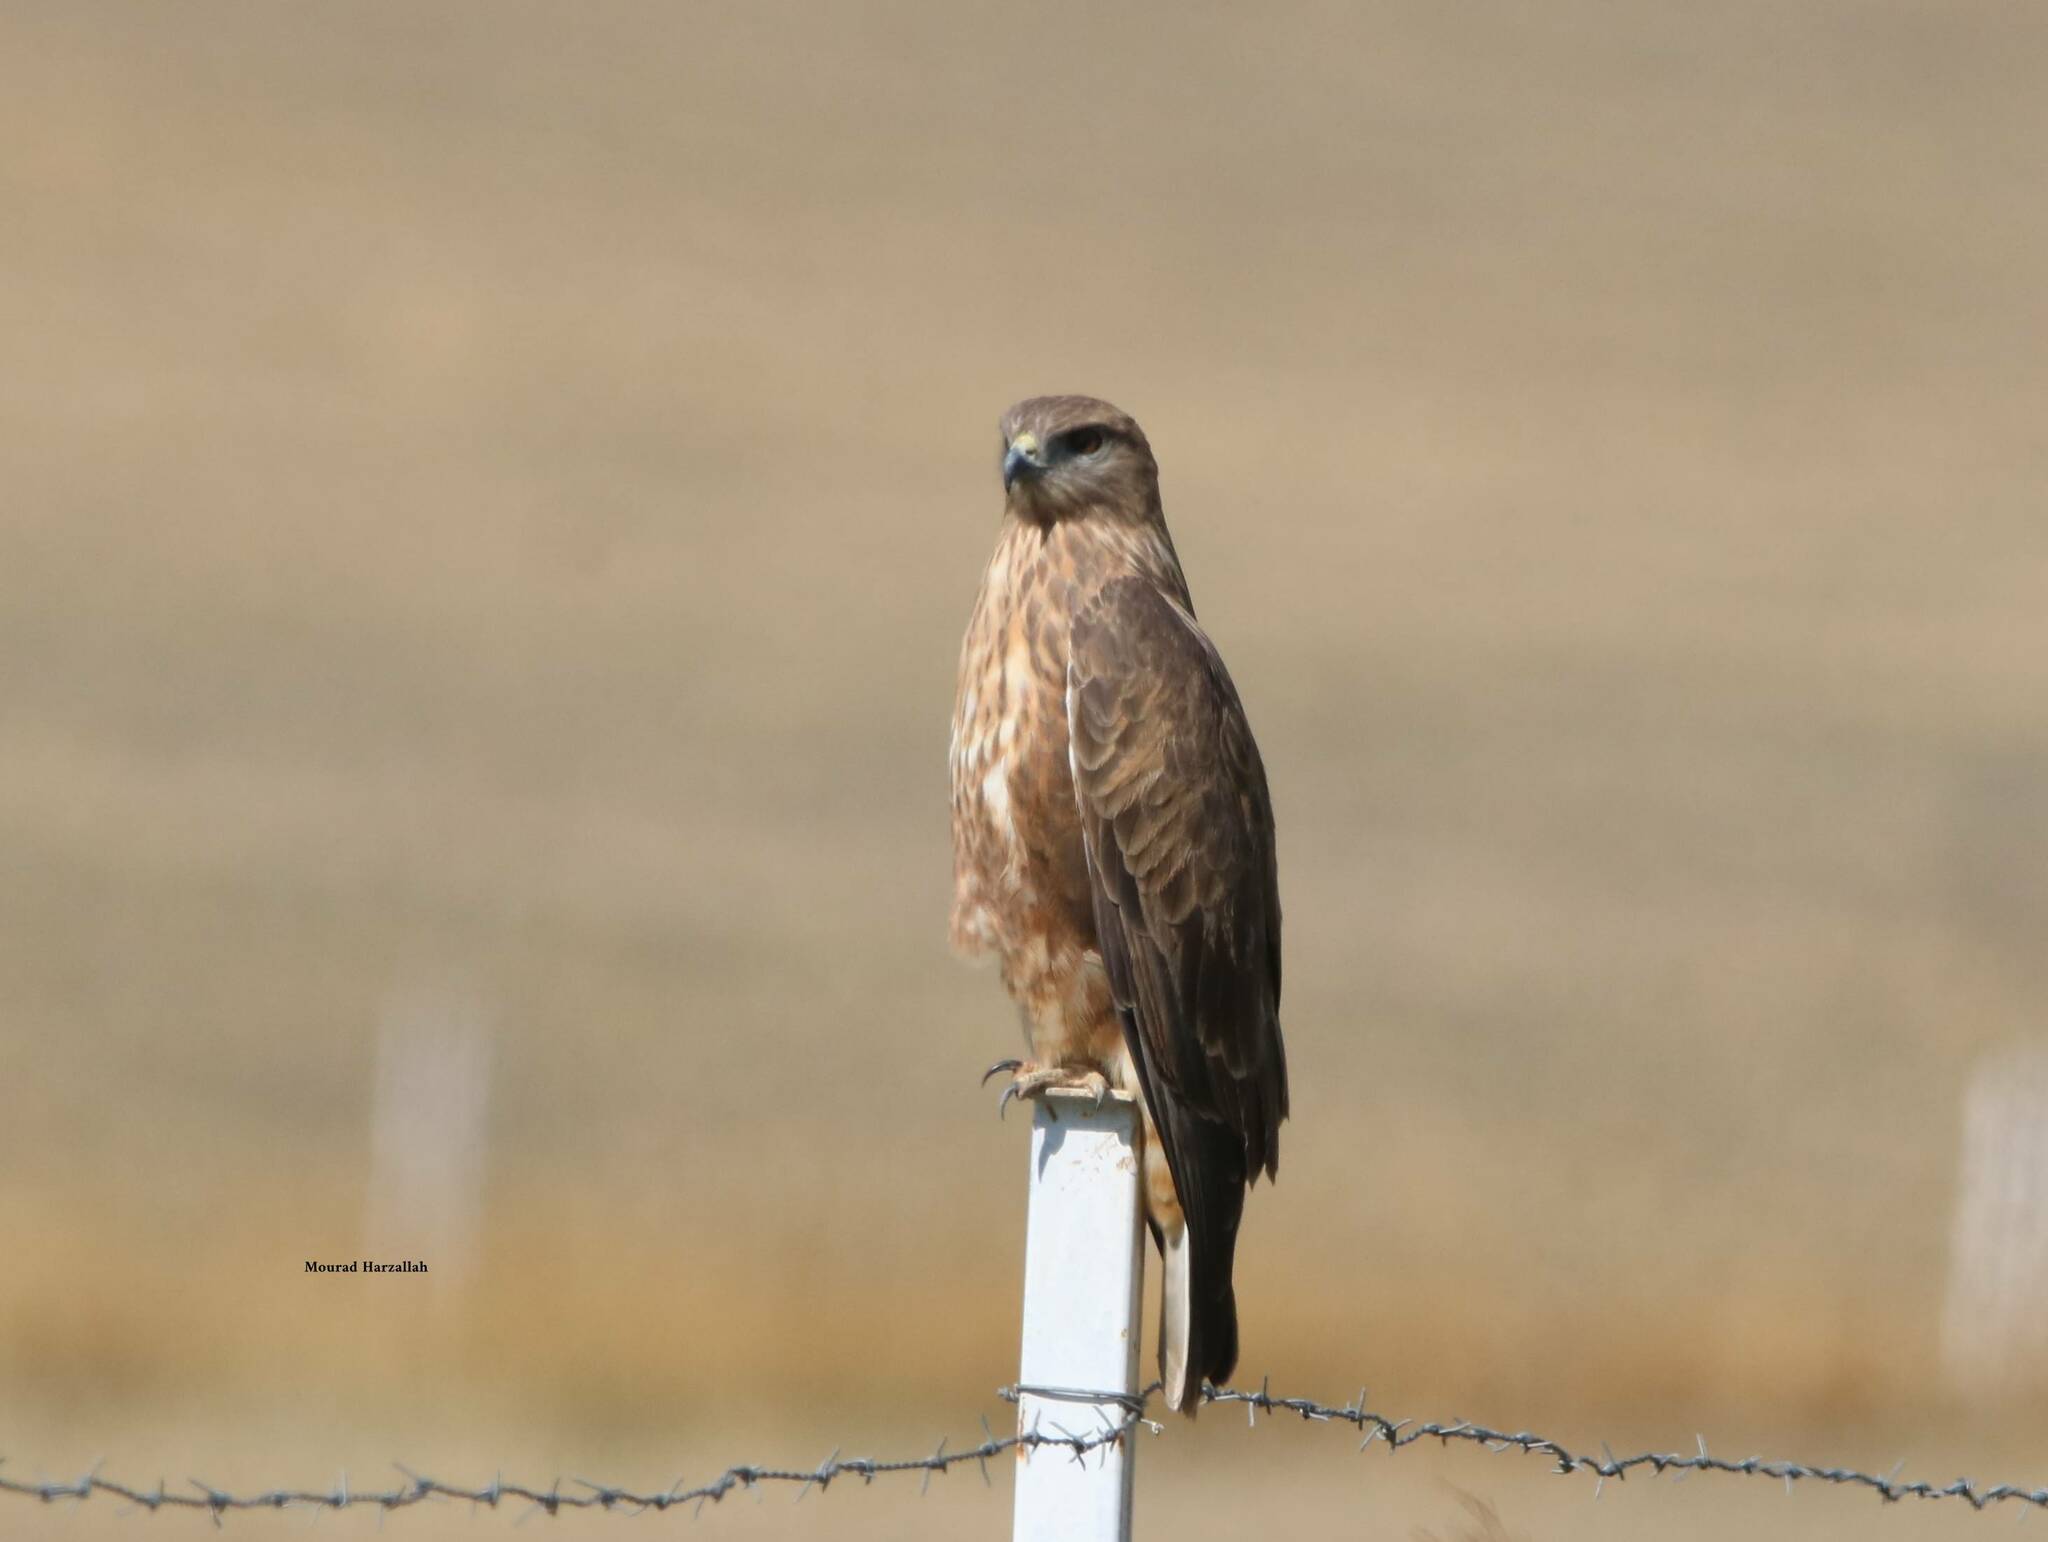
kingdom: Animalia
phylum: Chordata
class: Aves
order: Accipitriformes
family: Accipitridae
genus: Buteo
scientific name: Buteo rufinus
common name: Long-legged buzzard
